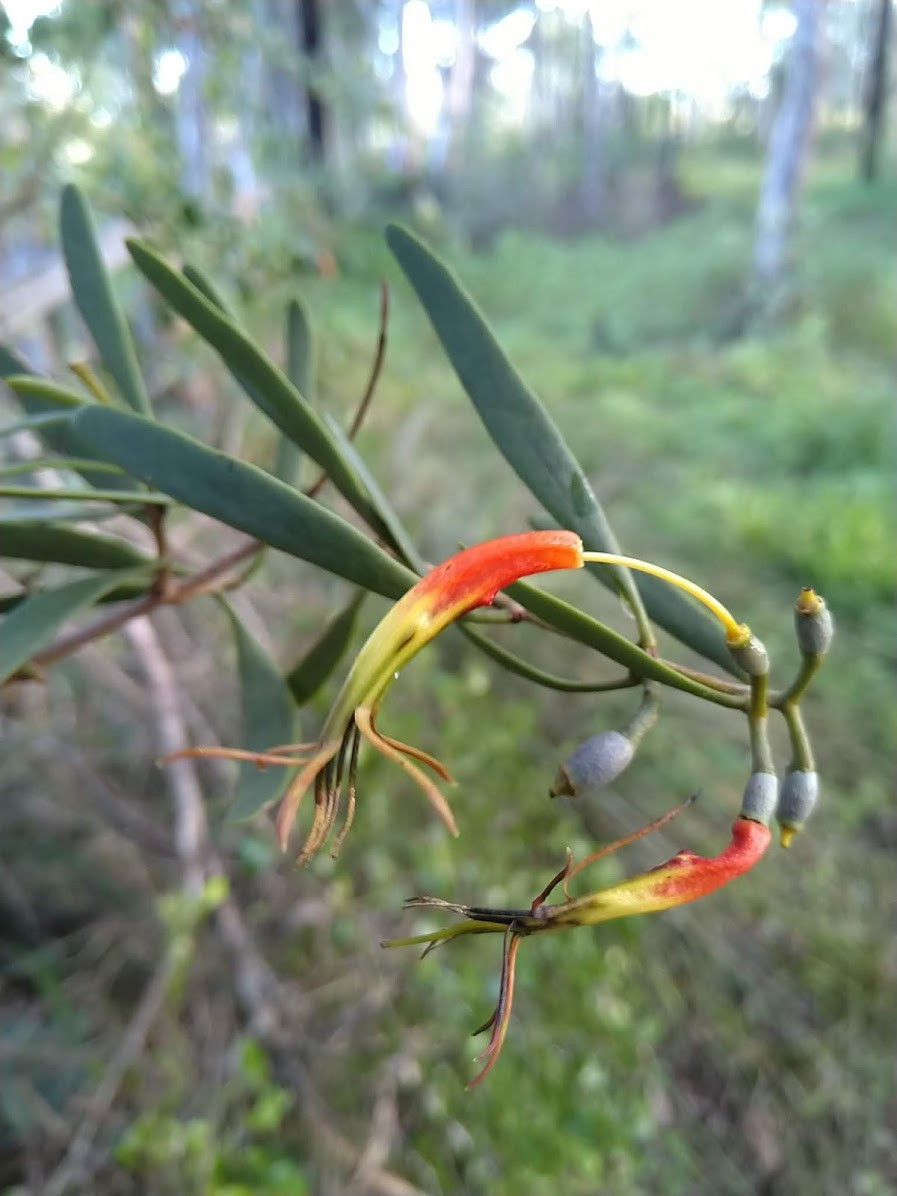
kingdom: Plantae
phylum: Tracheophyta
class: Magnoliopsida
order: Santalales
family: Loranthaceae
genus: Lysiana
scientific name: Lysiana subfalcata
